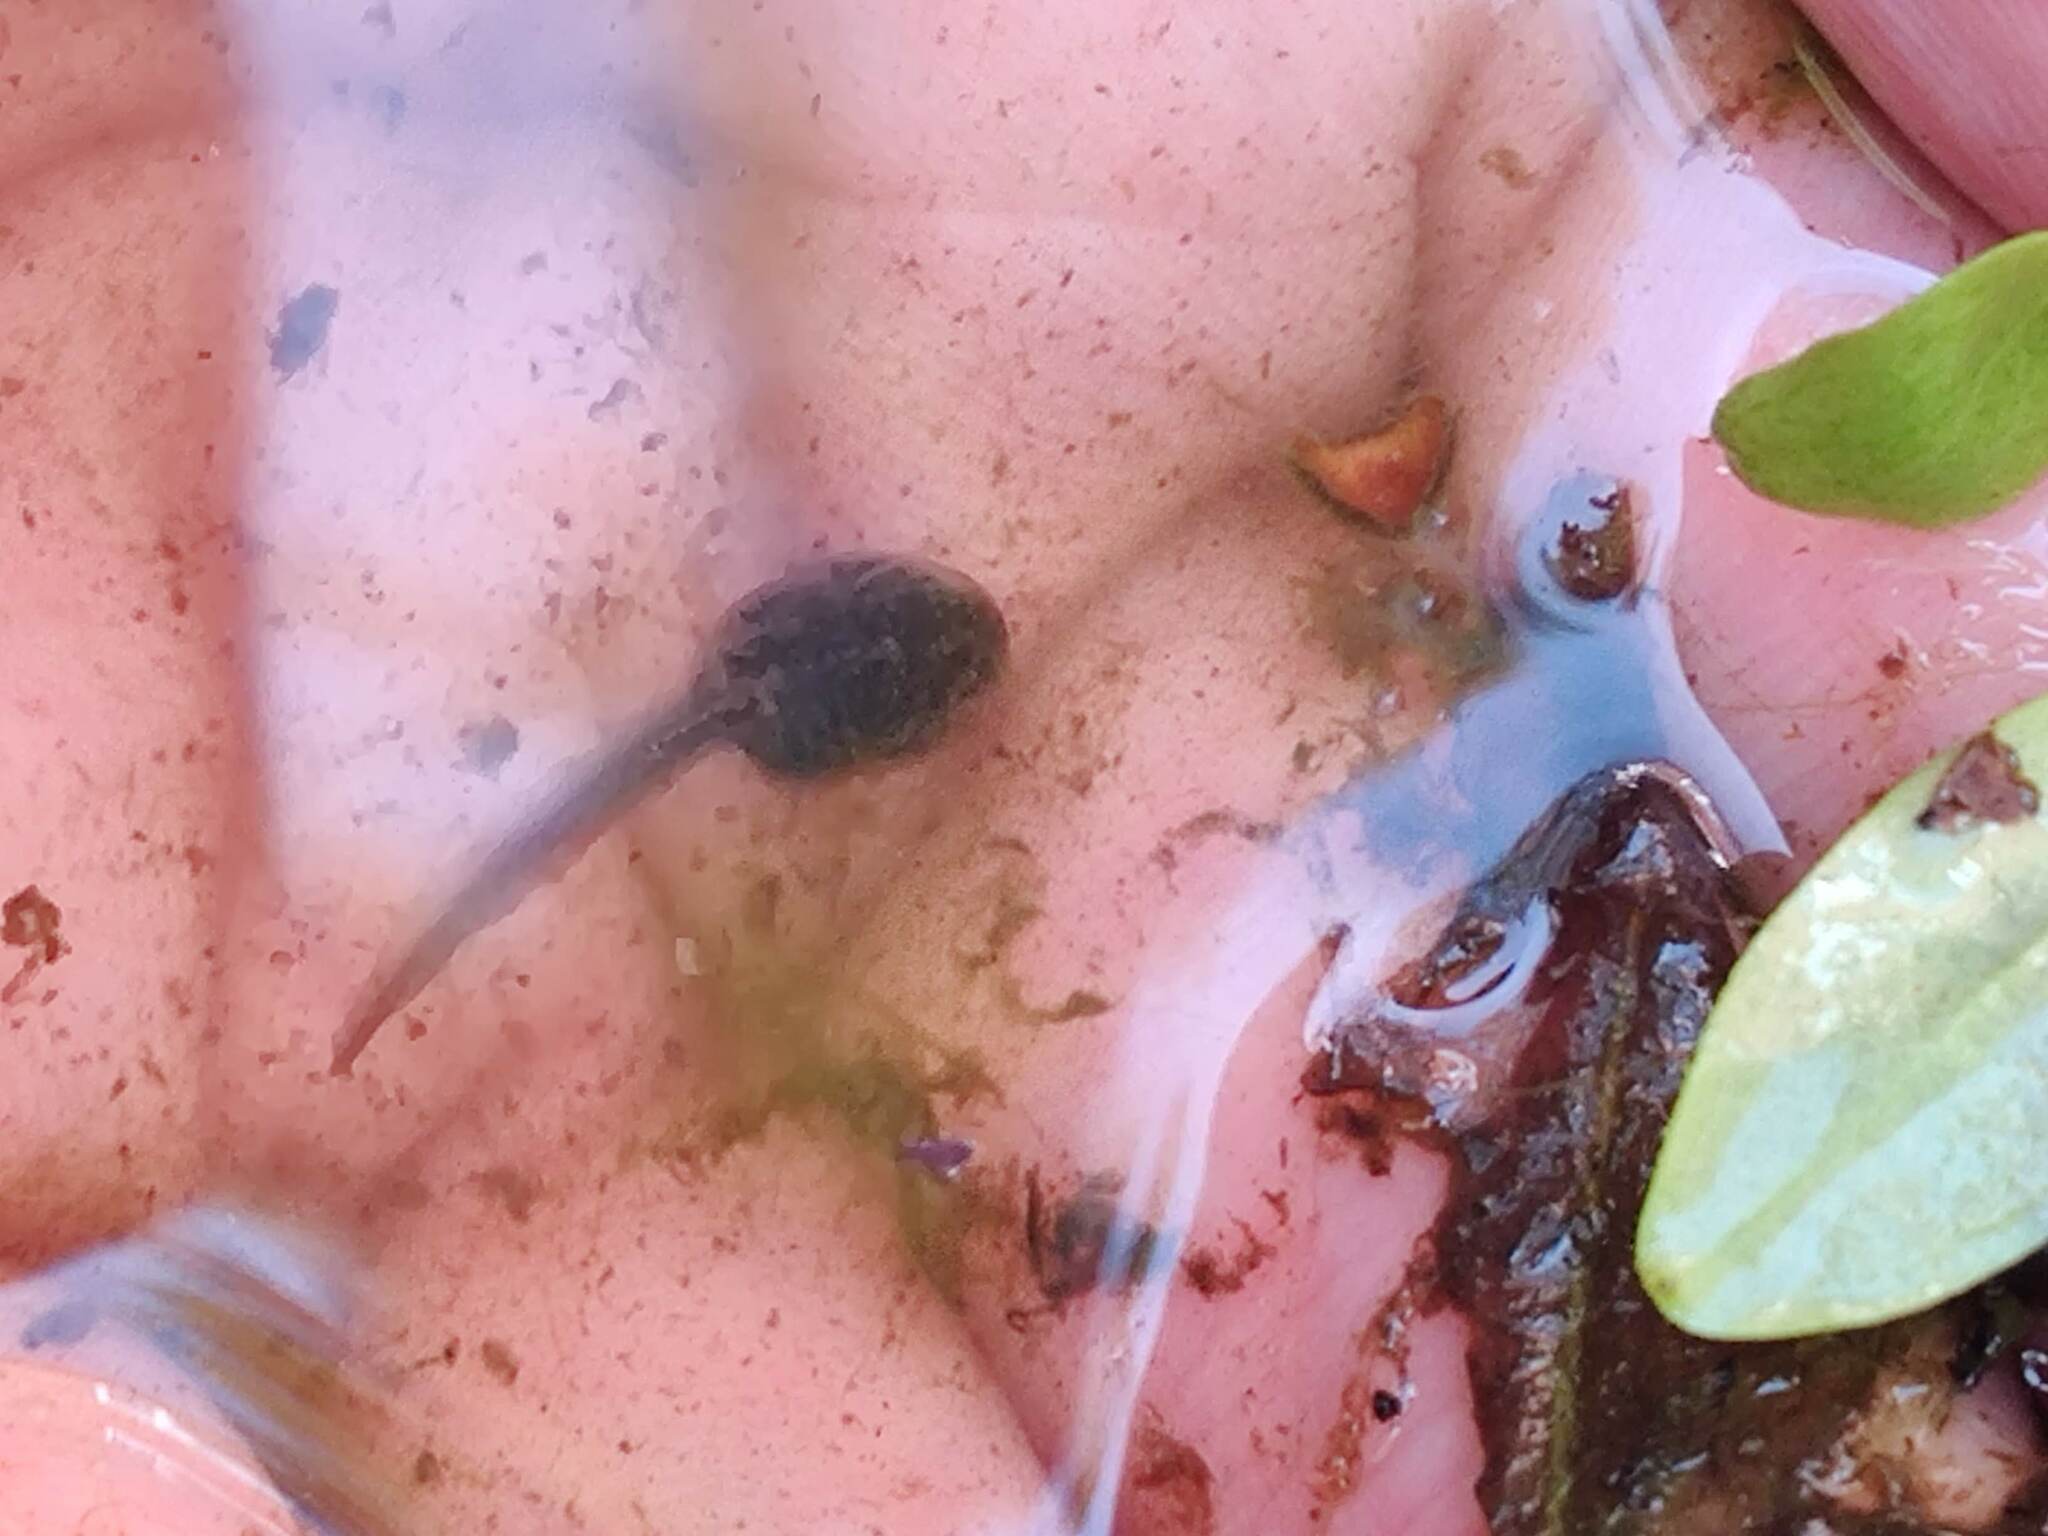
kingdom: Animalia
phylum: Chordata
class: Amphibia
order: Anura
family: Ranidae
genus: Rana
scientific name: Rana temporaria
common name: Common frog
